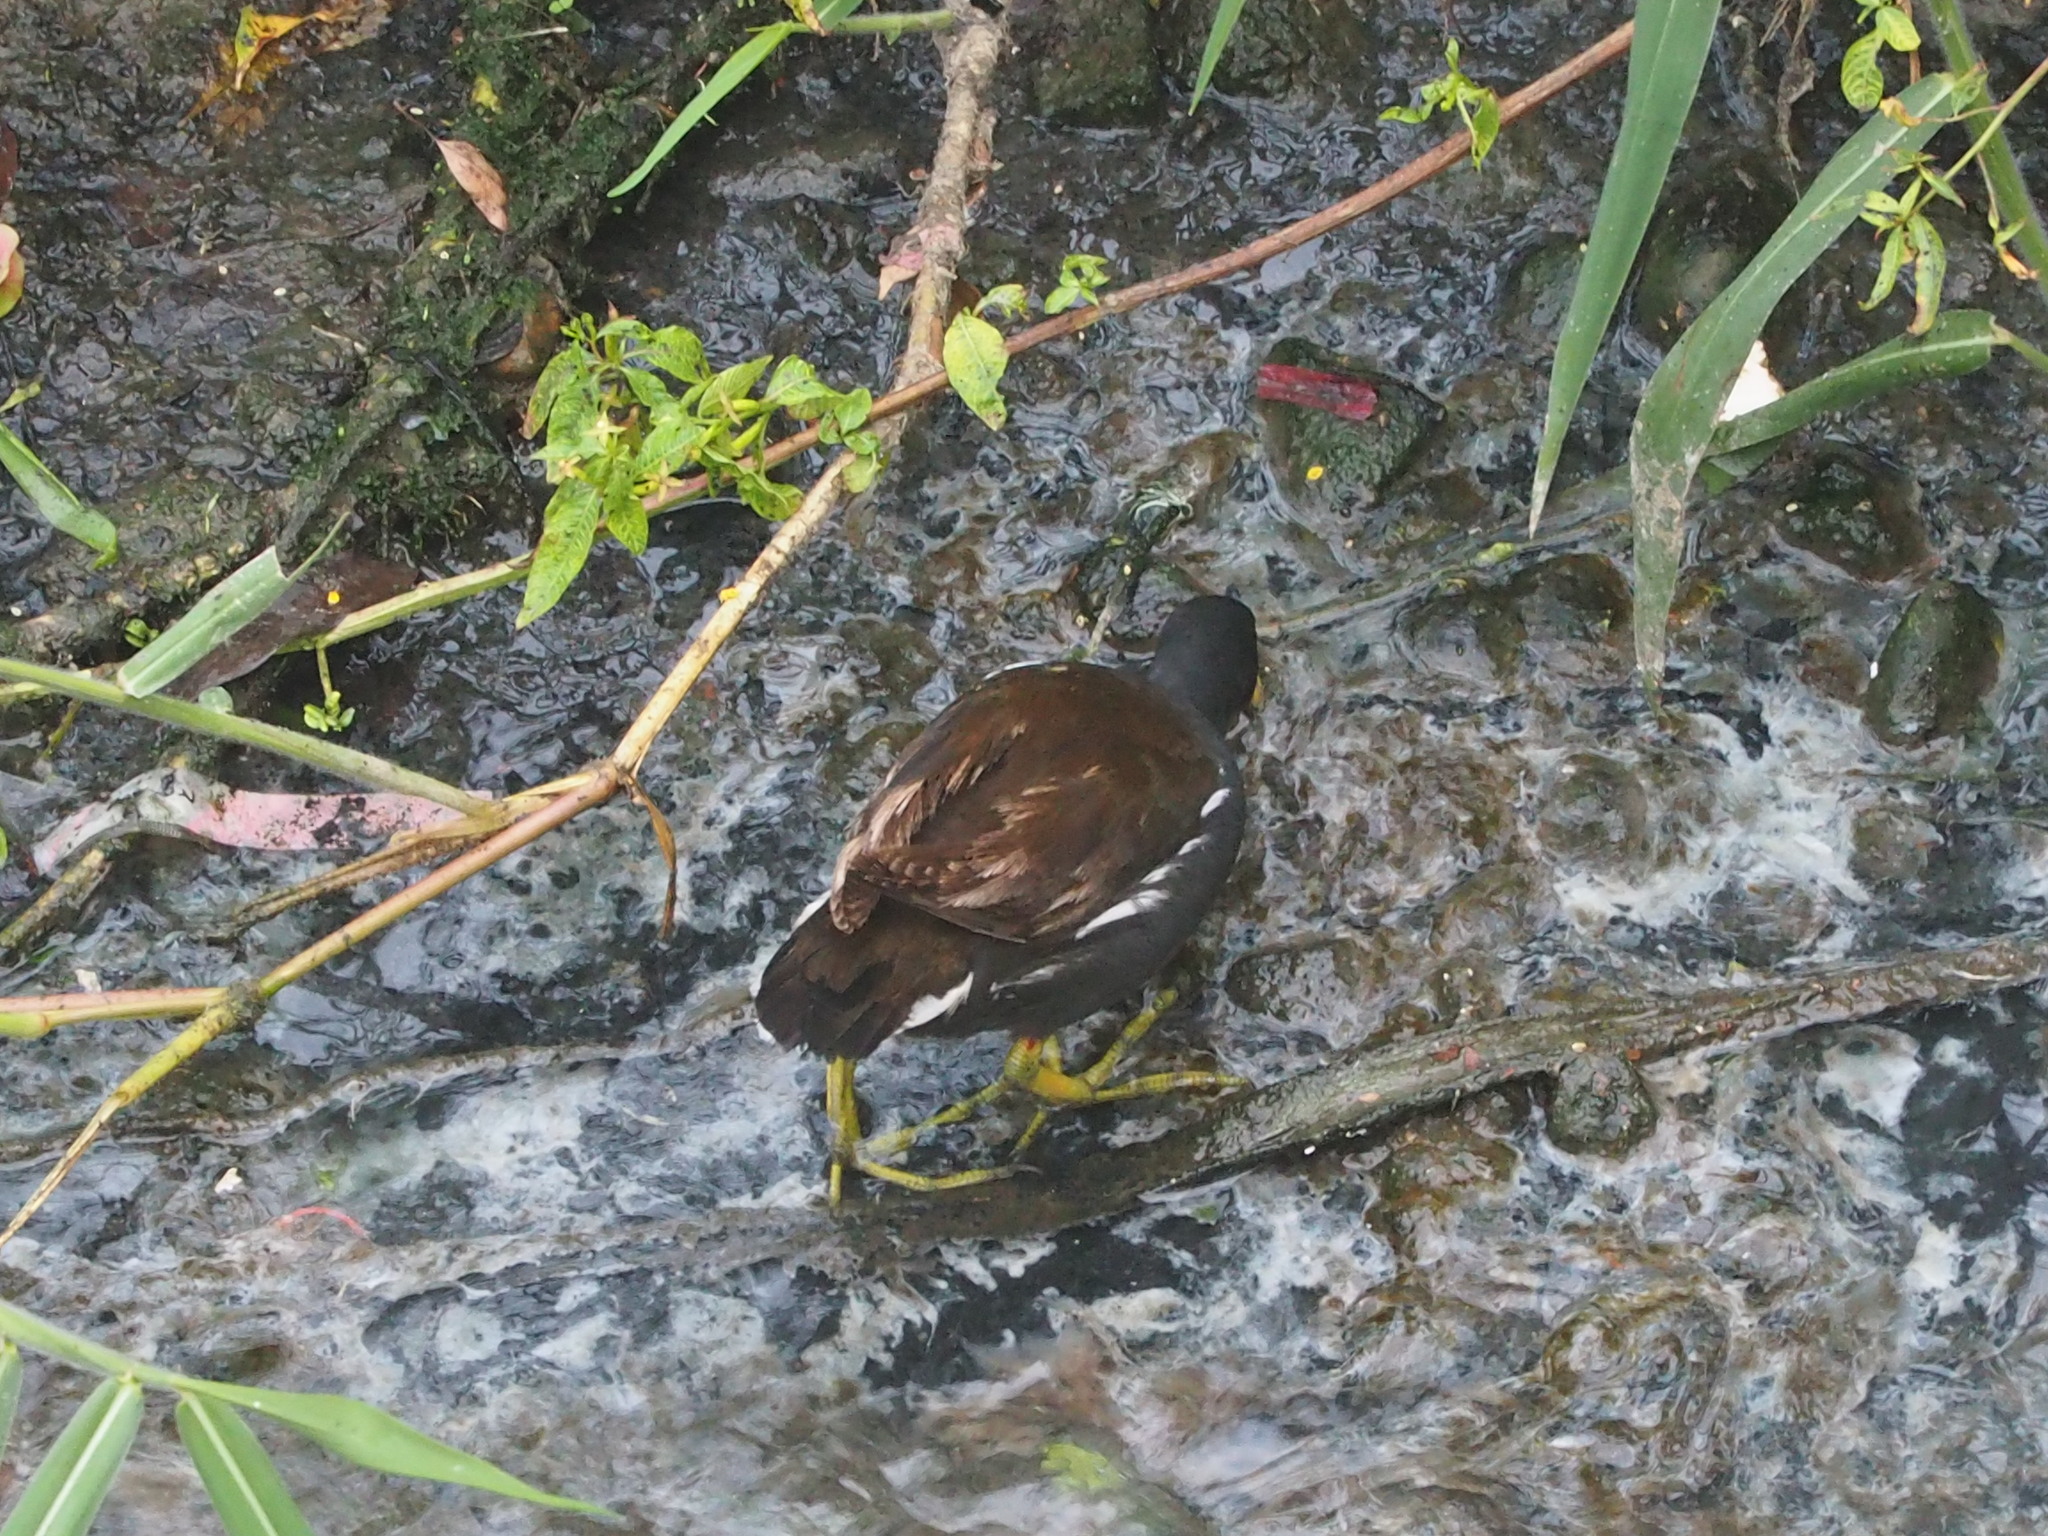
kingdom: Animalia
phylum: Chordata
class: Aves
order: Gruiformes
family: Rallidae
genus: Gallinula
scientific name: Gallinula chloropus
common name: Common moorhen
